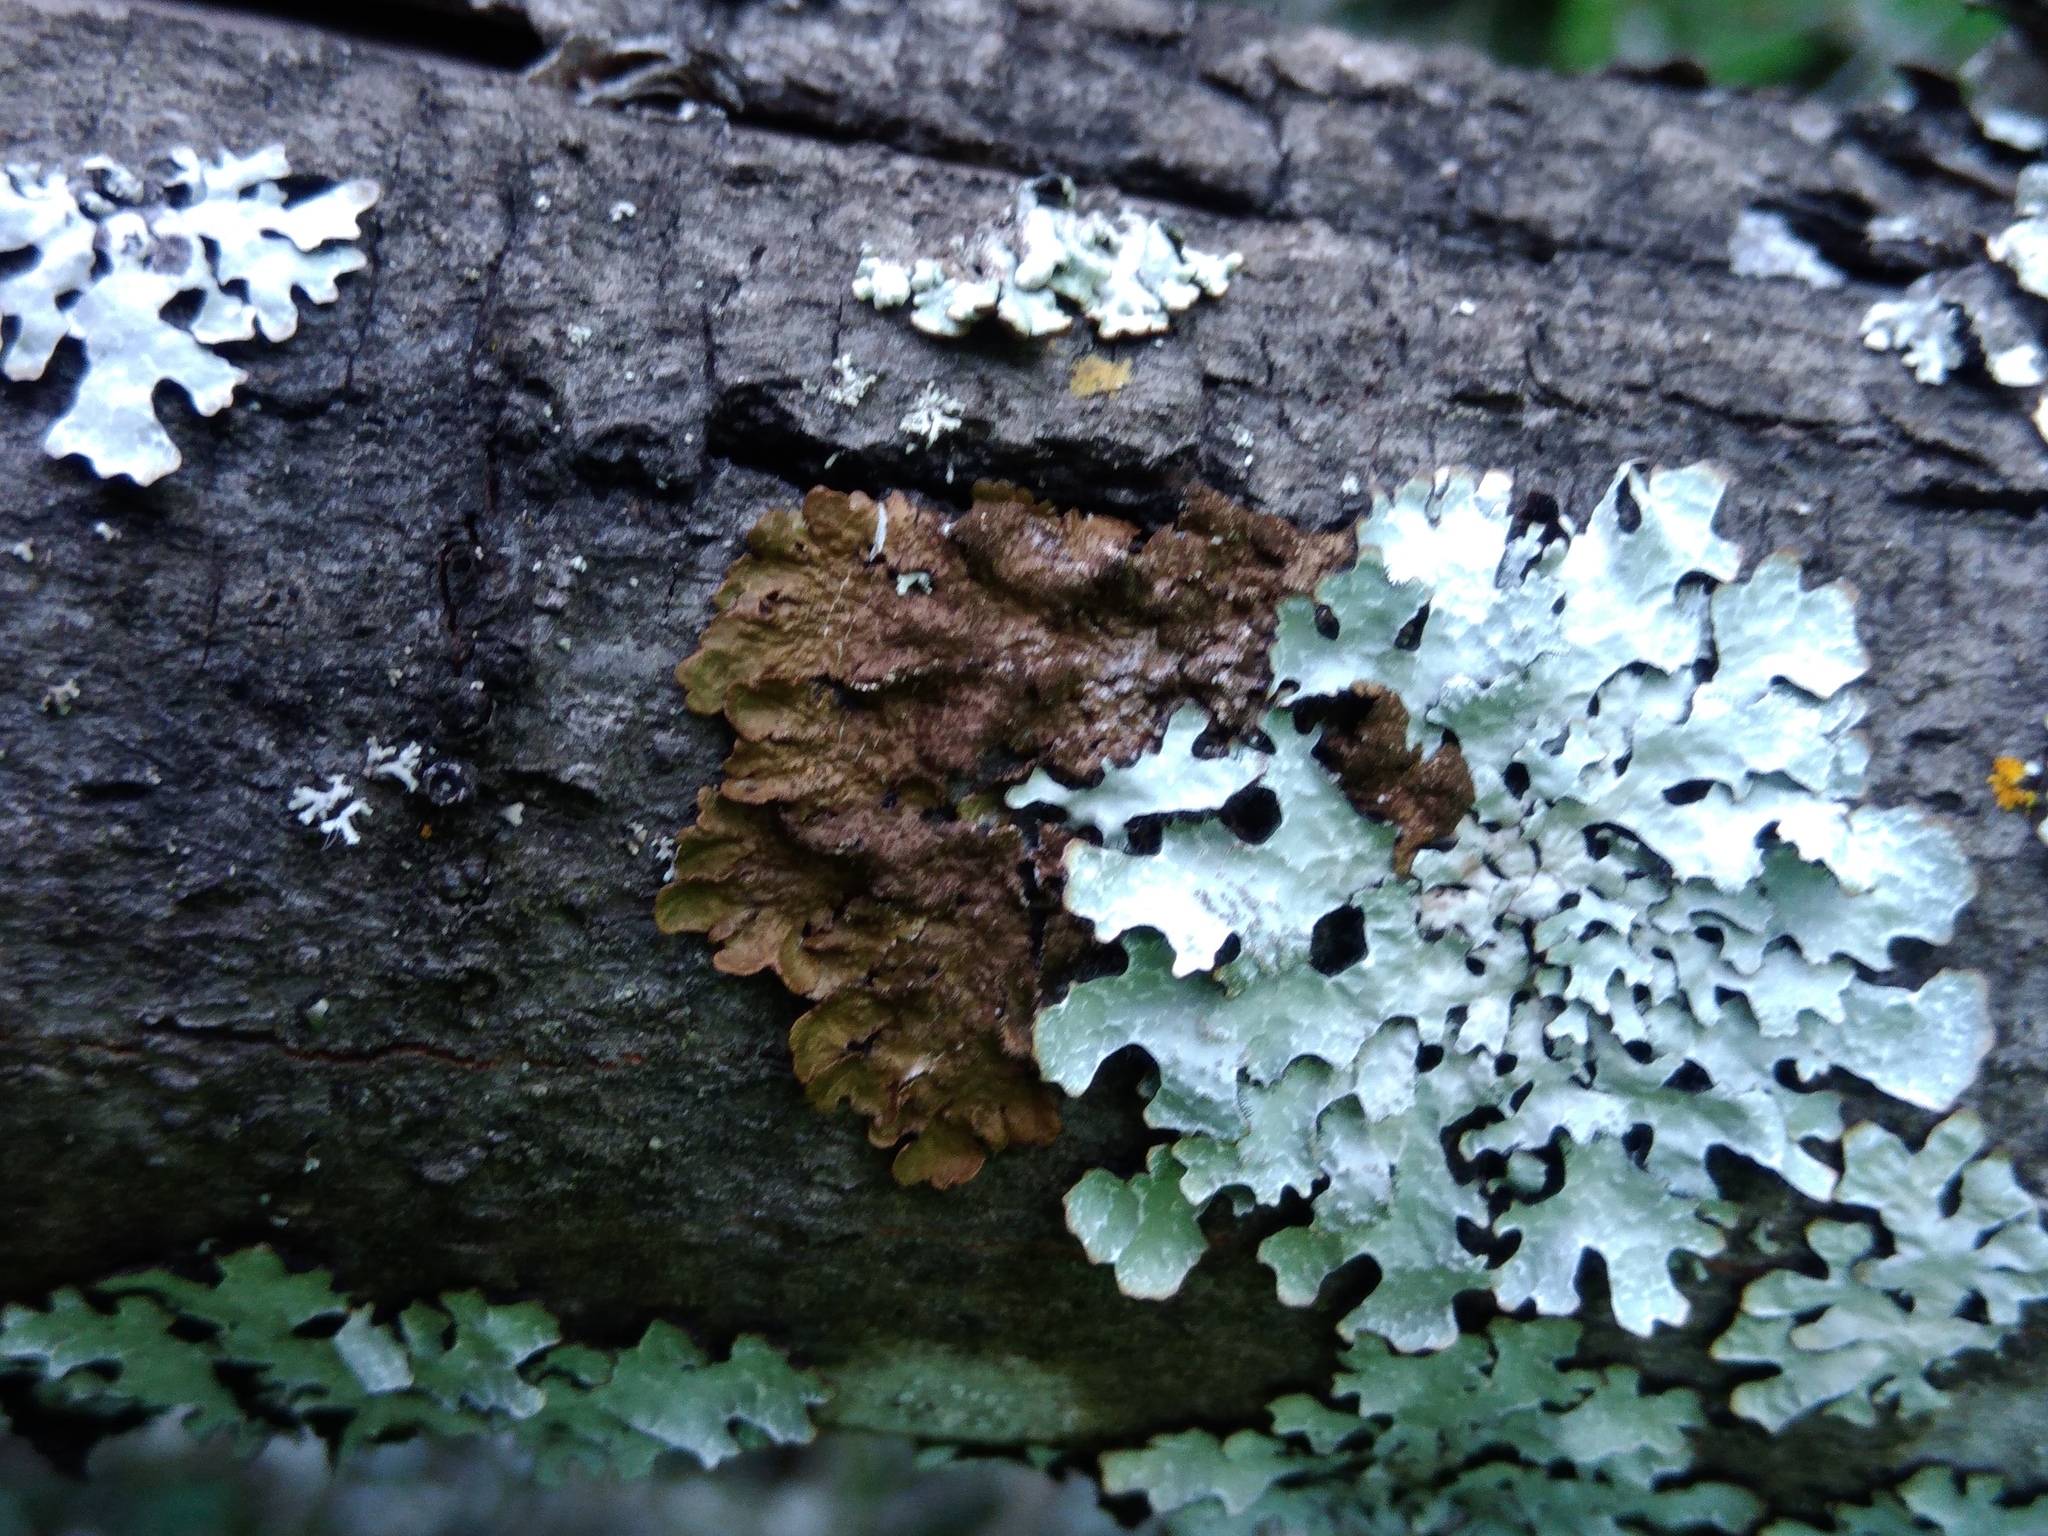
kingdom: Fungi
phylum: Ascomycota
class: Lecanoromycetes
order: Lecanorales
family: Parmeliaceae
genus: Melanelixia
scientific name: Melanelixia subaurifera
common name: Abraded camouflage lichen
